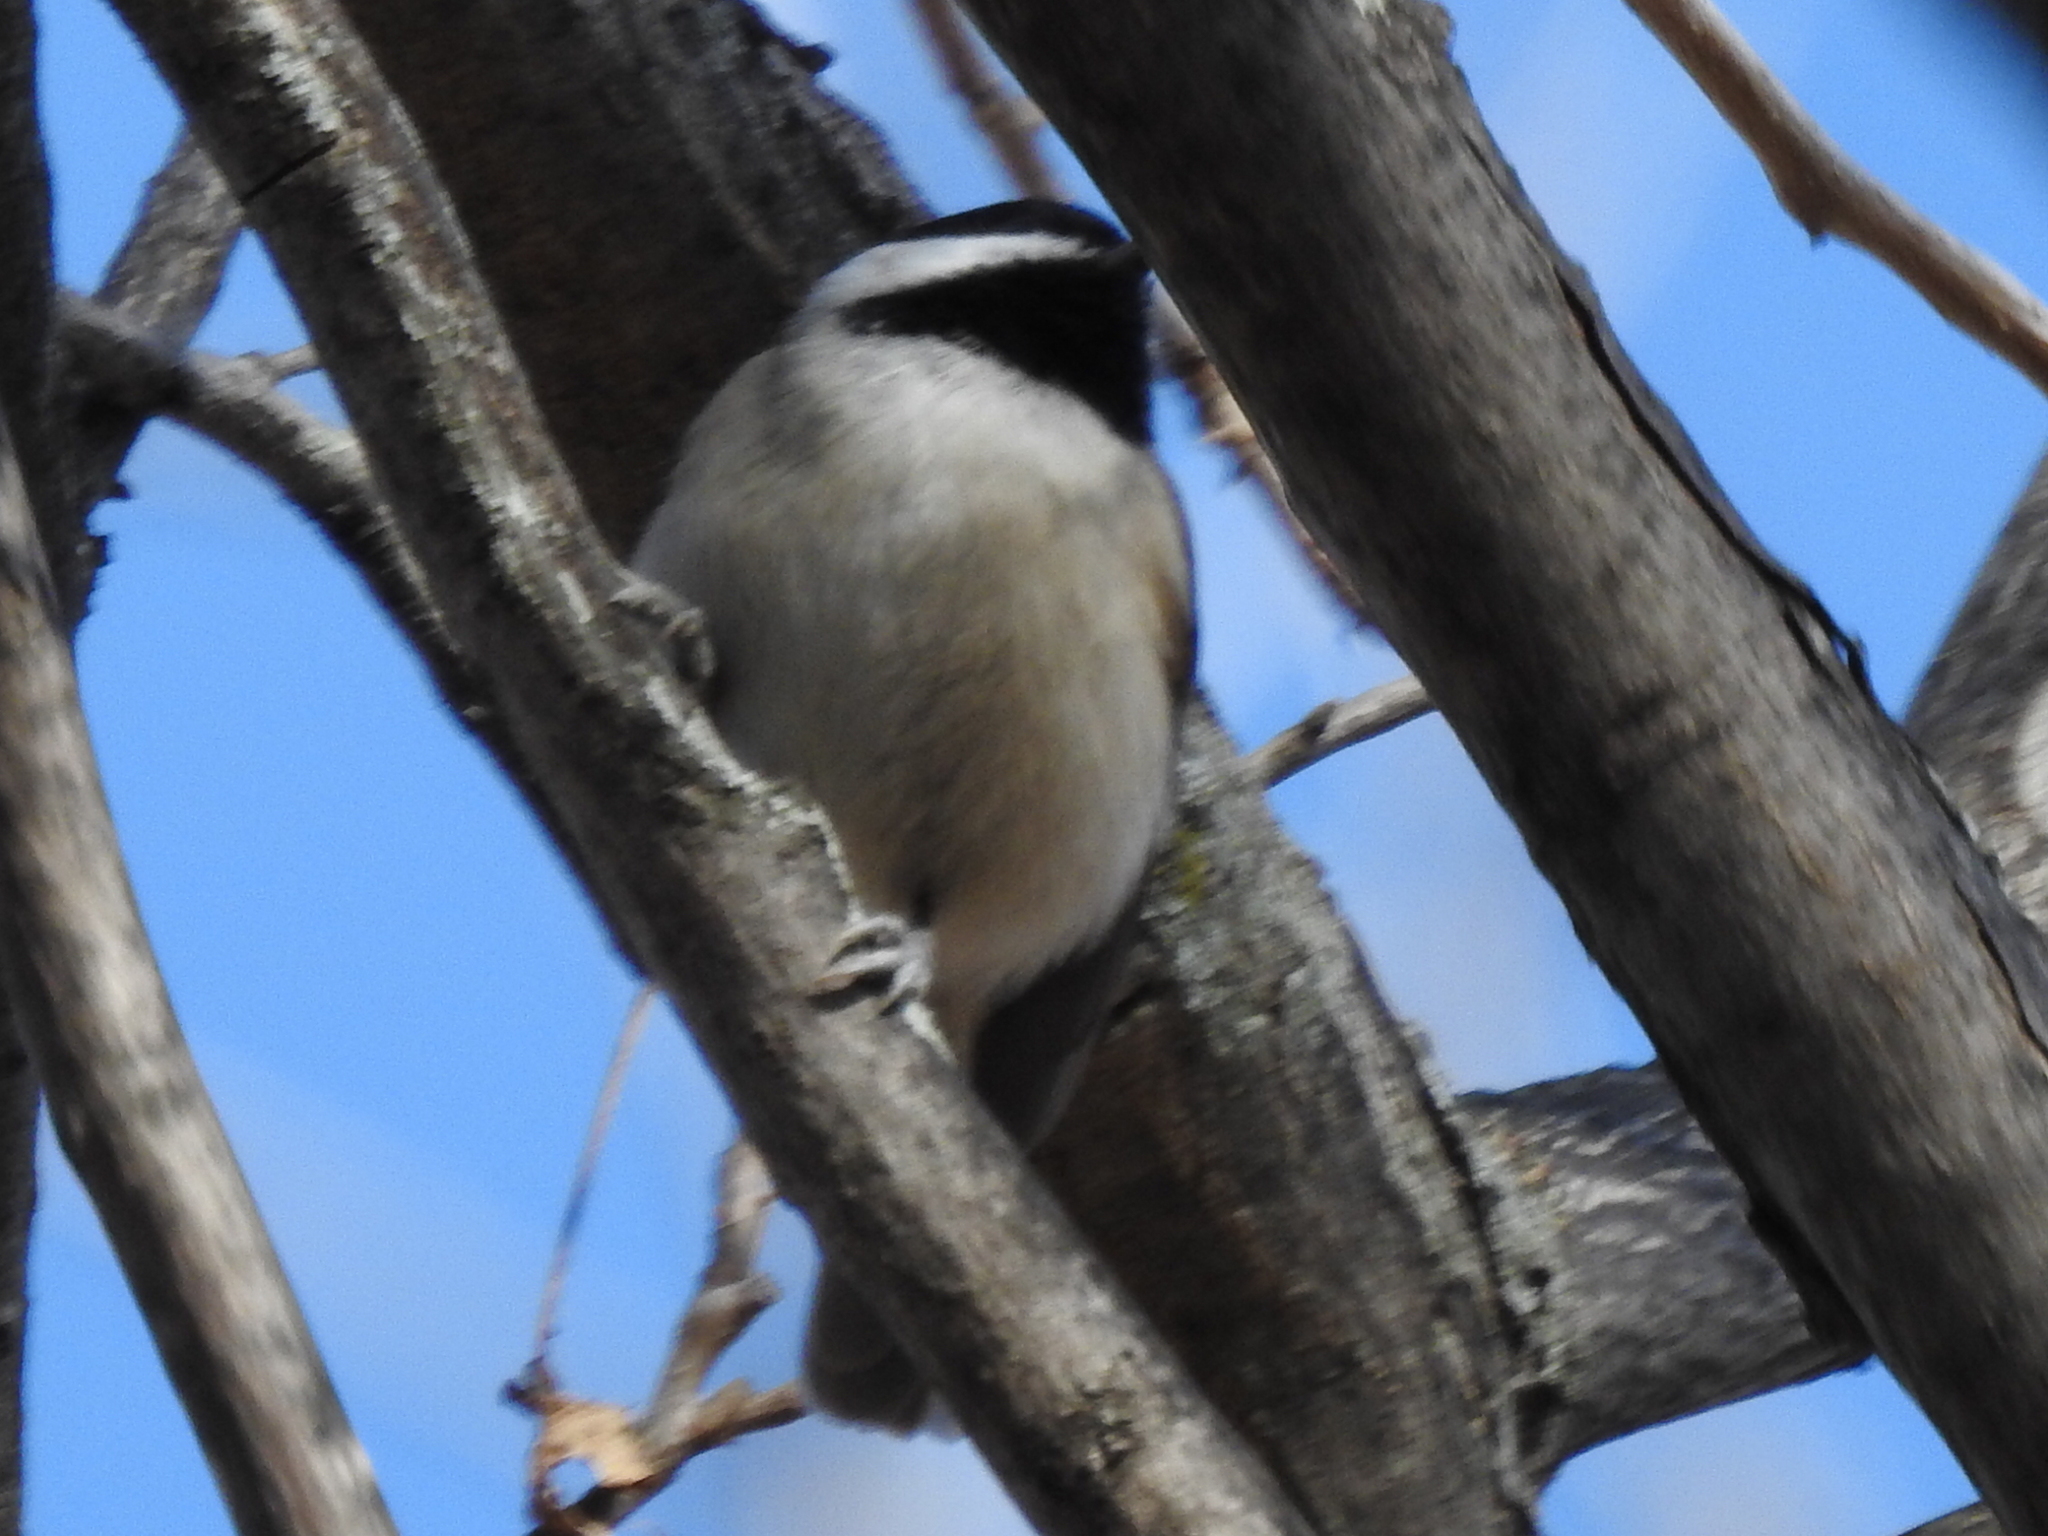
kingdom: Animalia
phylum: Chordata
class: Aves
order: Passeriformes
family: Paridae
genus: Poecile
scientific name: Poecile carolinensis
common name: Carolina chickadee
